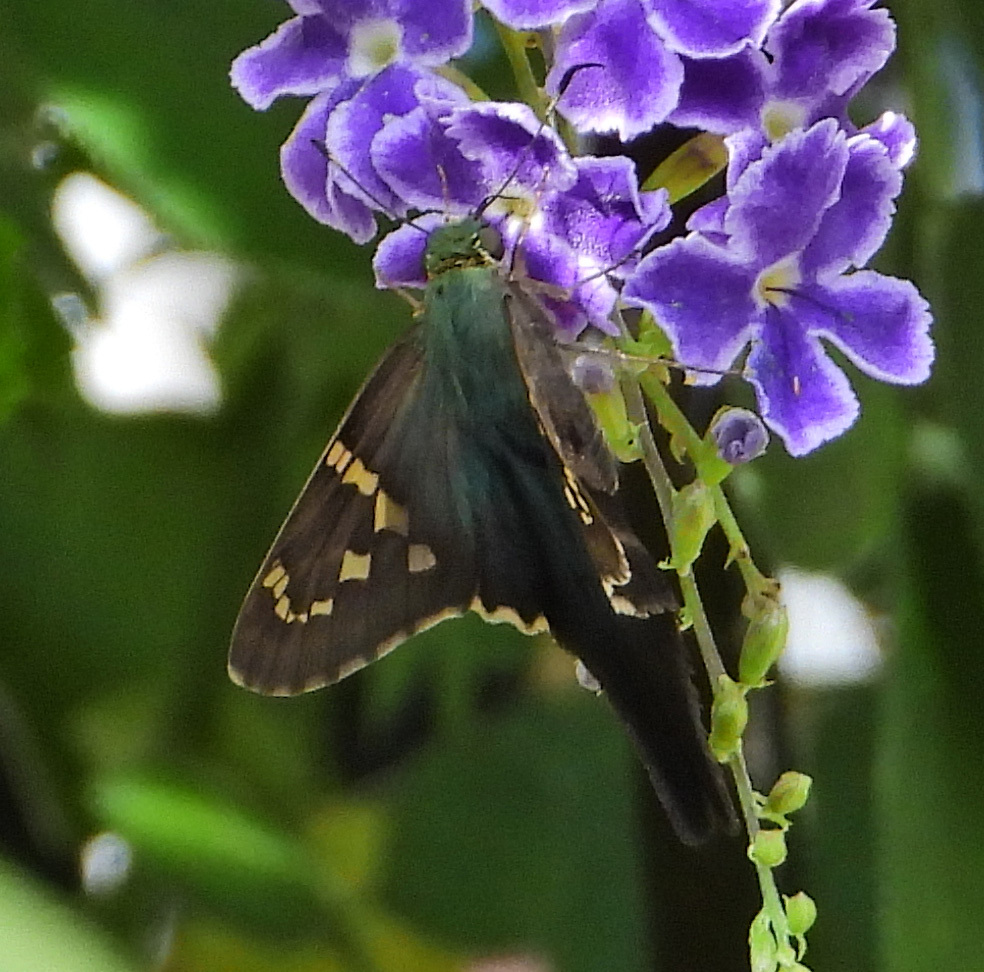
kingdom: Animalia
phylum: Arthropoda
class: Insecta
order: Lepidoptera
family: Hesperiidae
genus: Urbanus
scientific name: Urbanus proteus
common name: Long-tailed skipper
